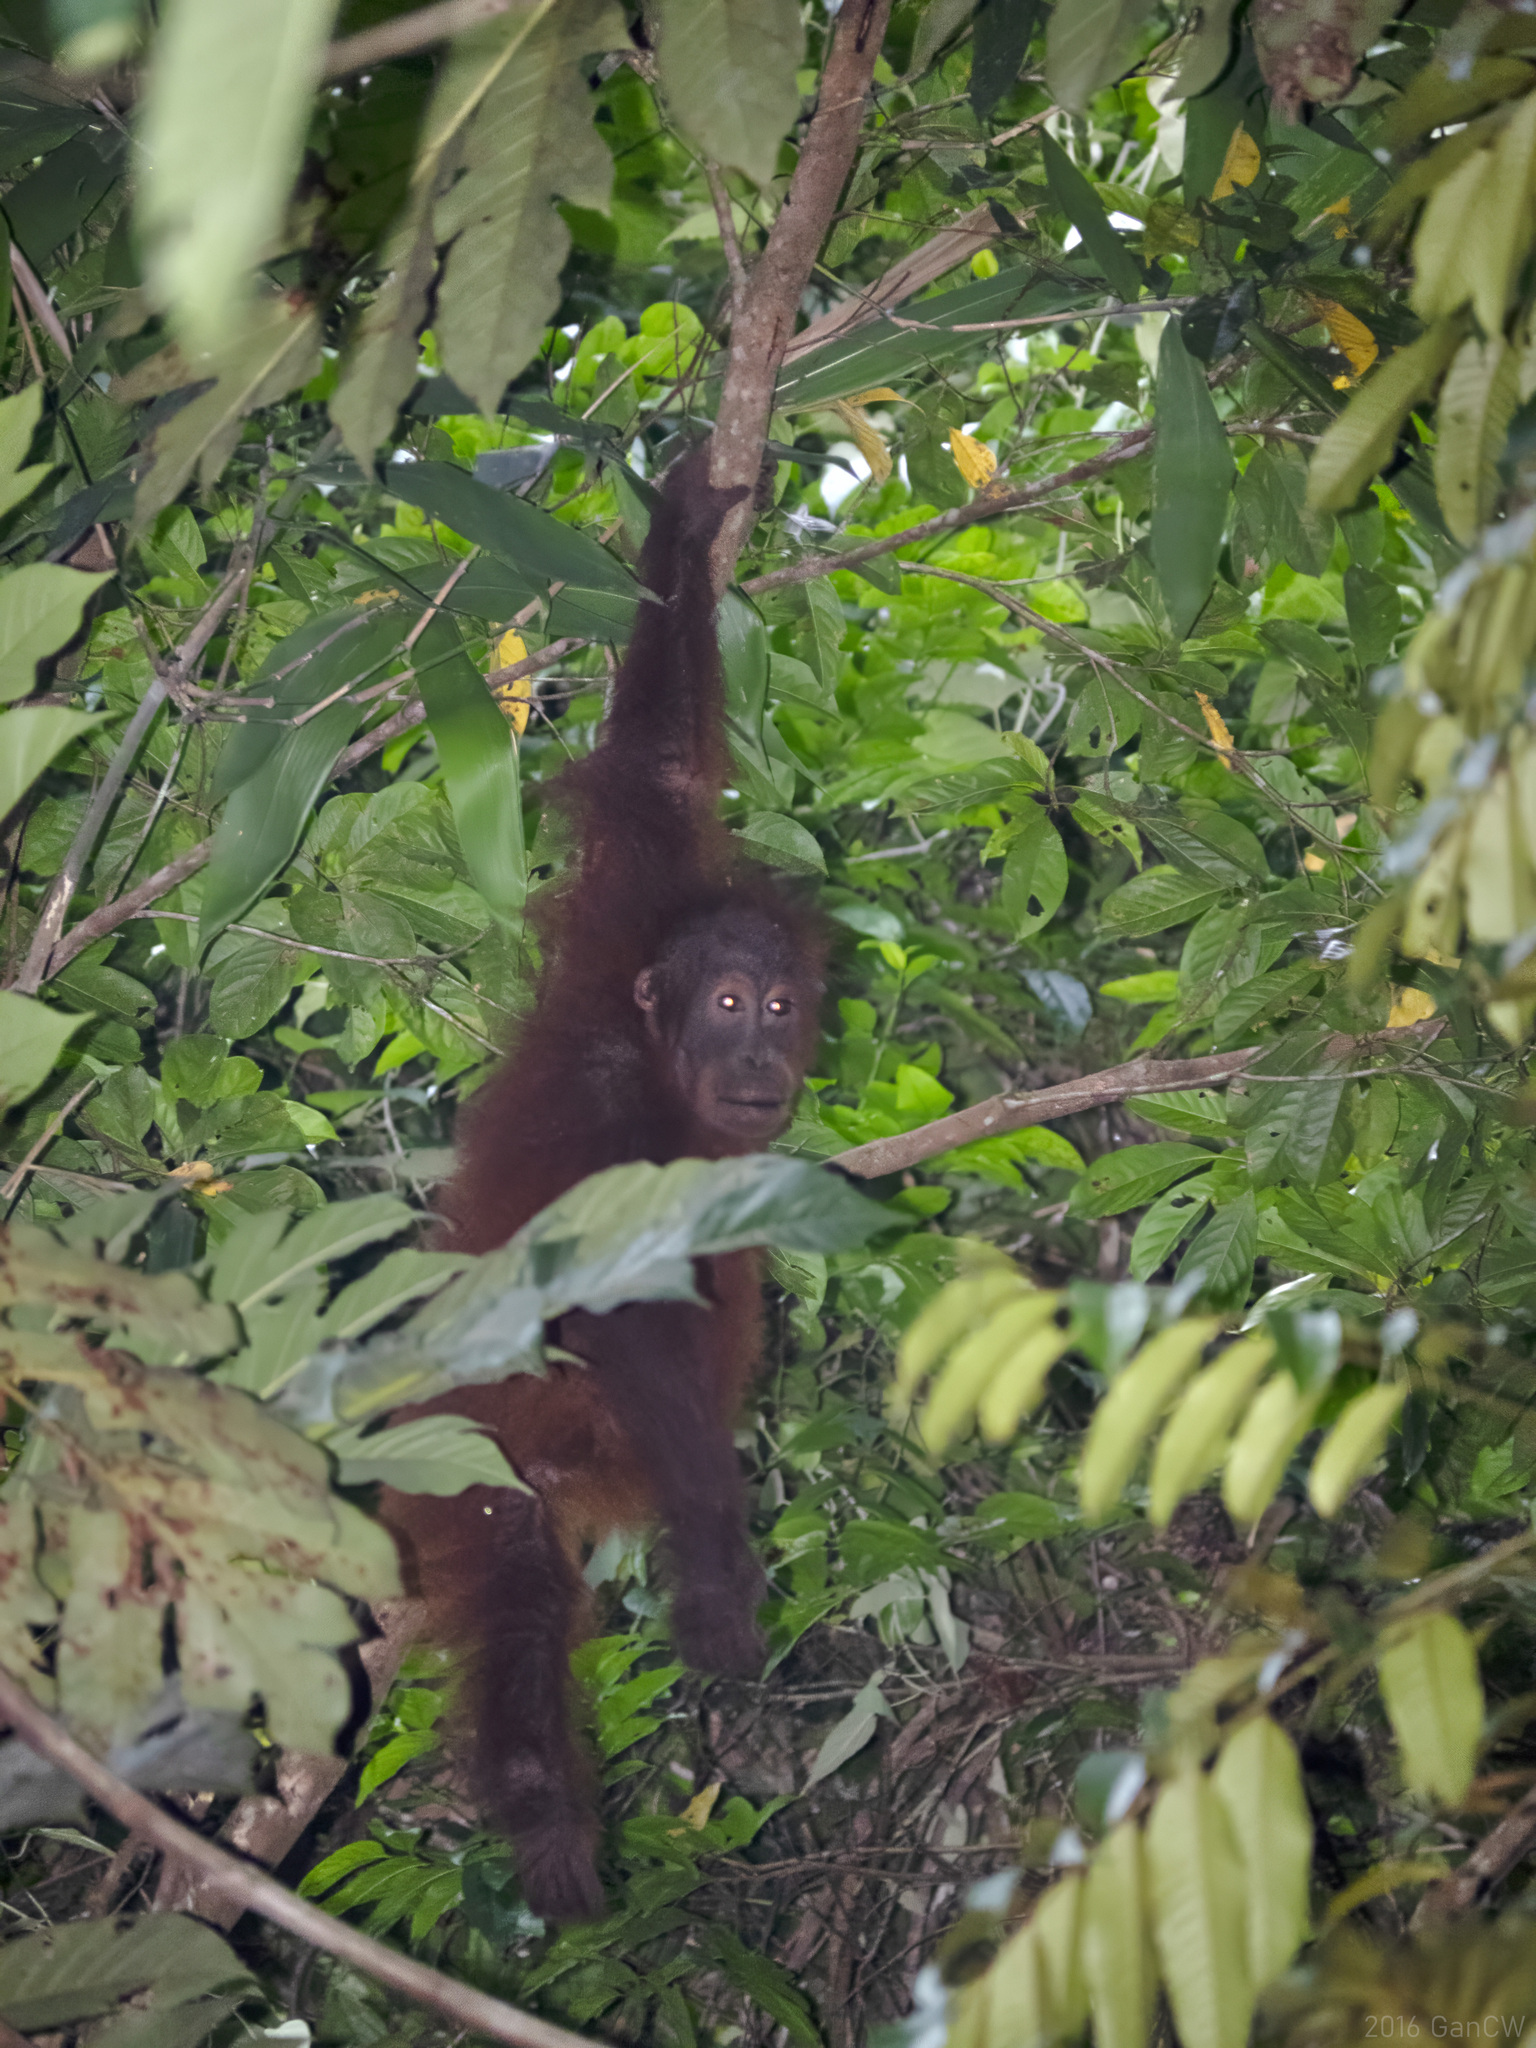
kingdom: Animalia
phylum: Chordata
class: Mammalia
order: Primates
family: Hominidae
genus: Pongo
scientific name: Pongo pygmaeus
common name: Bornean orangutan
